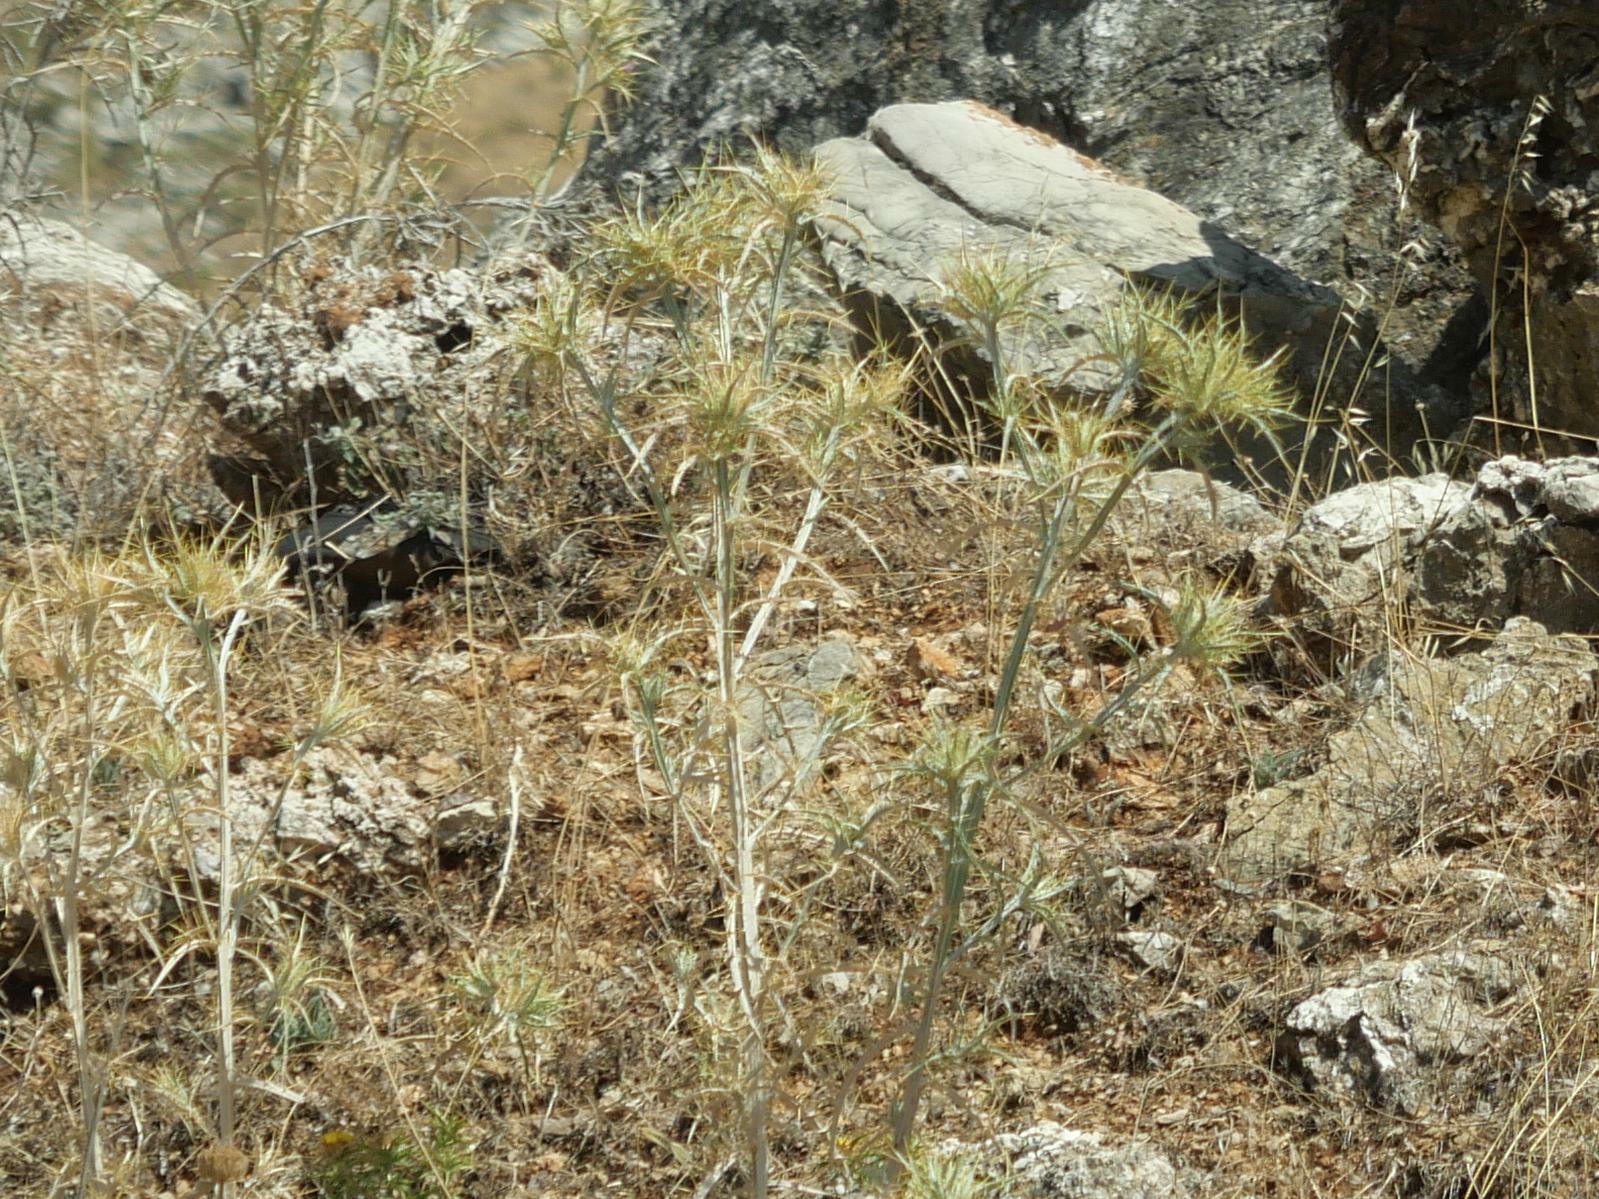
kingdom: Plantae
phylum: Tracheophyta
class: Magnoliopsida
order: Asterales
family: Asteraceae
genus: Picnomon
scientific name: Picnomon acarna
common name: Soldier thistle
